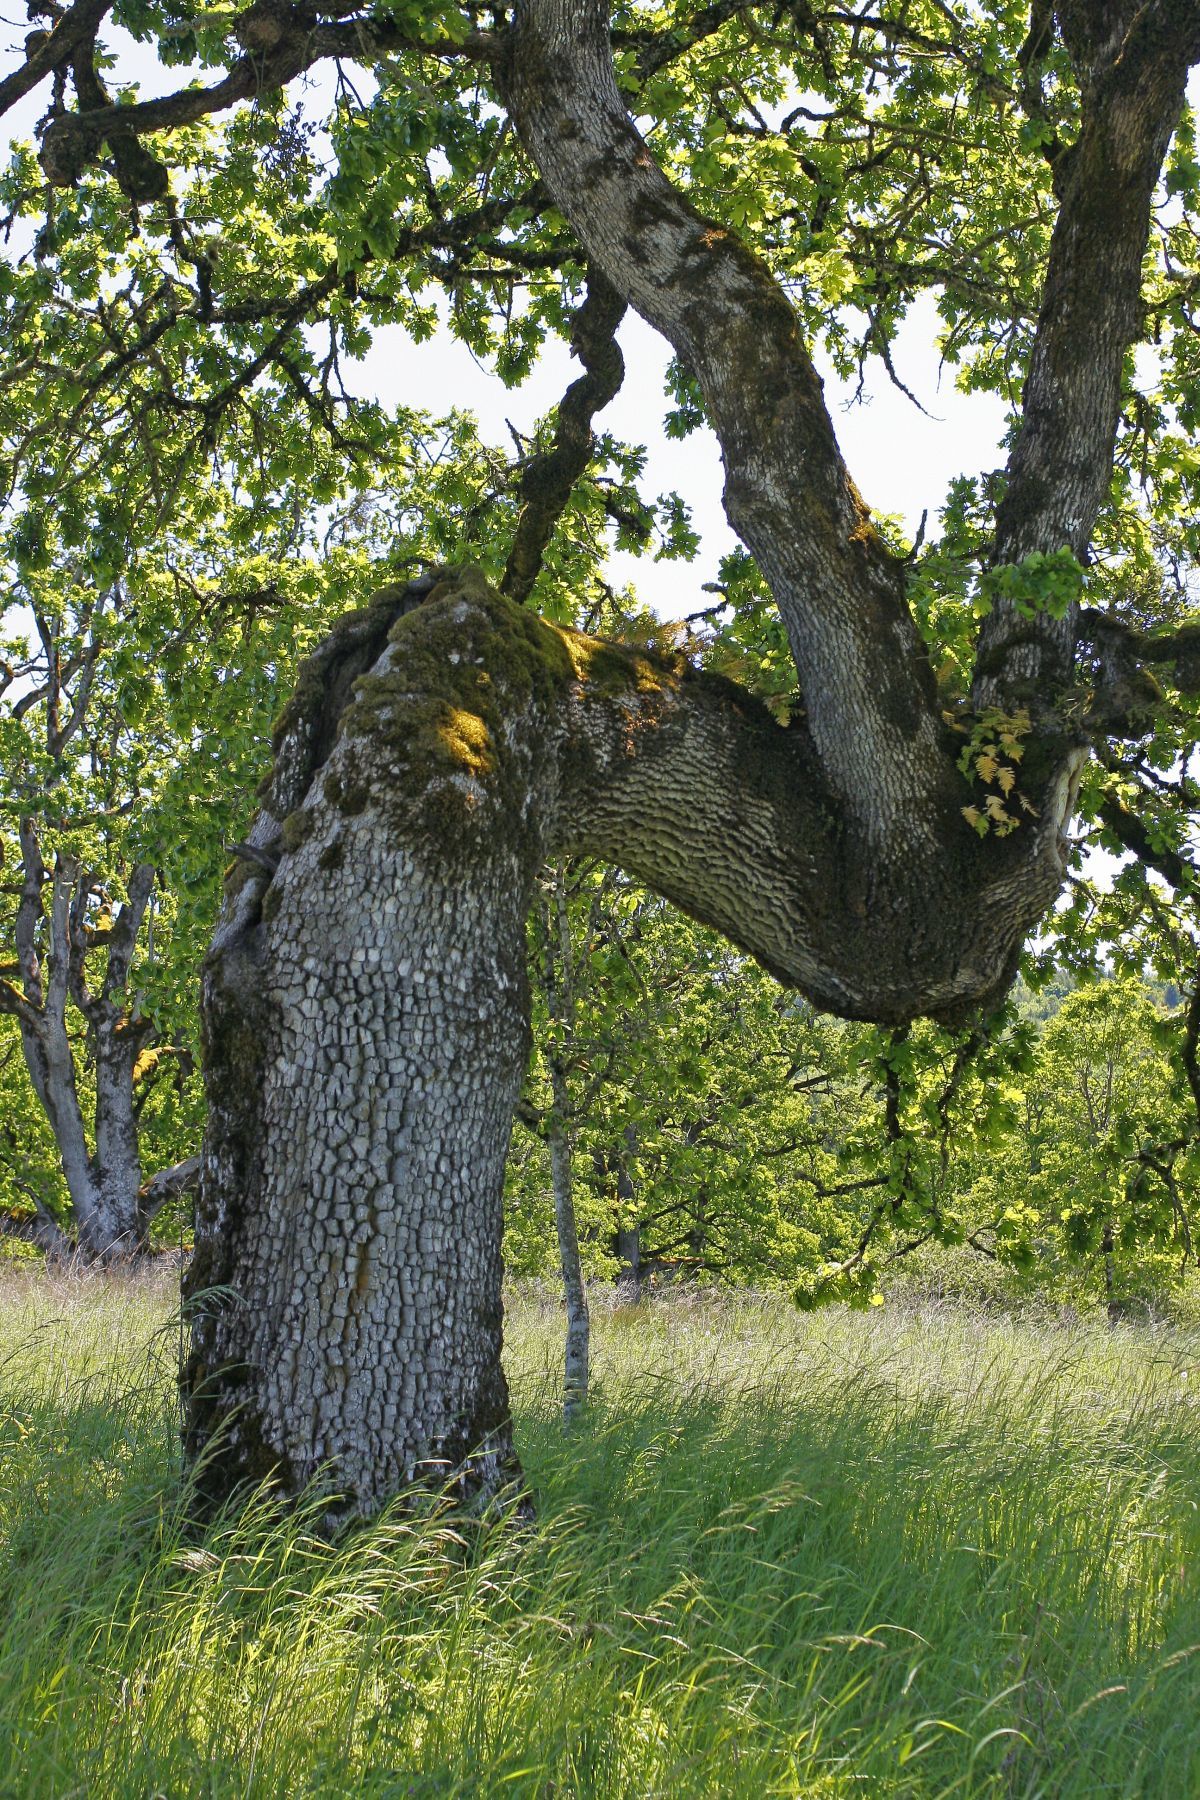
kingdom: Plantae
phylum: Tracheophyta
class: Magnoliopsida
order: Fagales
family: Fagaceae
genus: Quercus
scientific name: Quercus garryana
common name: Garry oak
